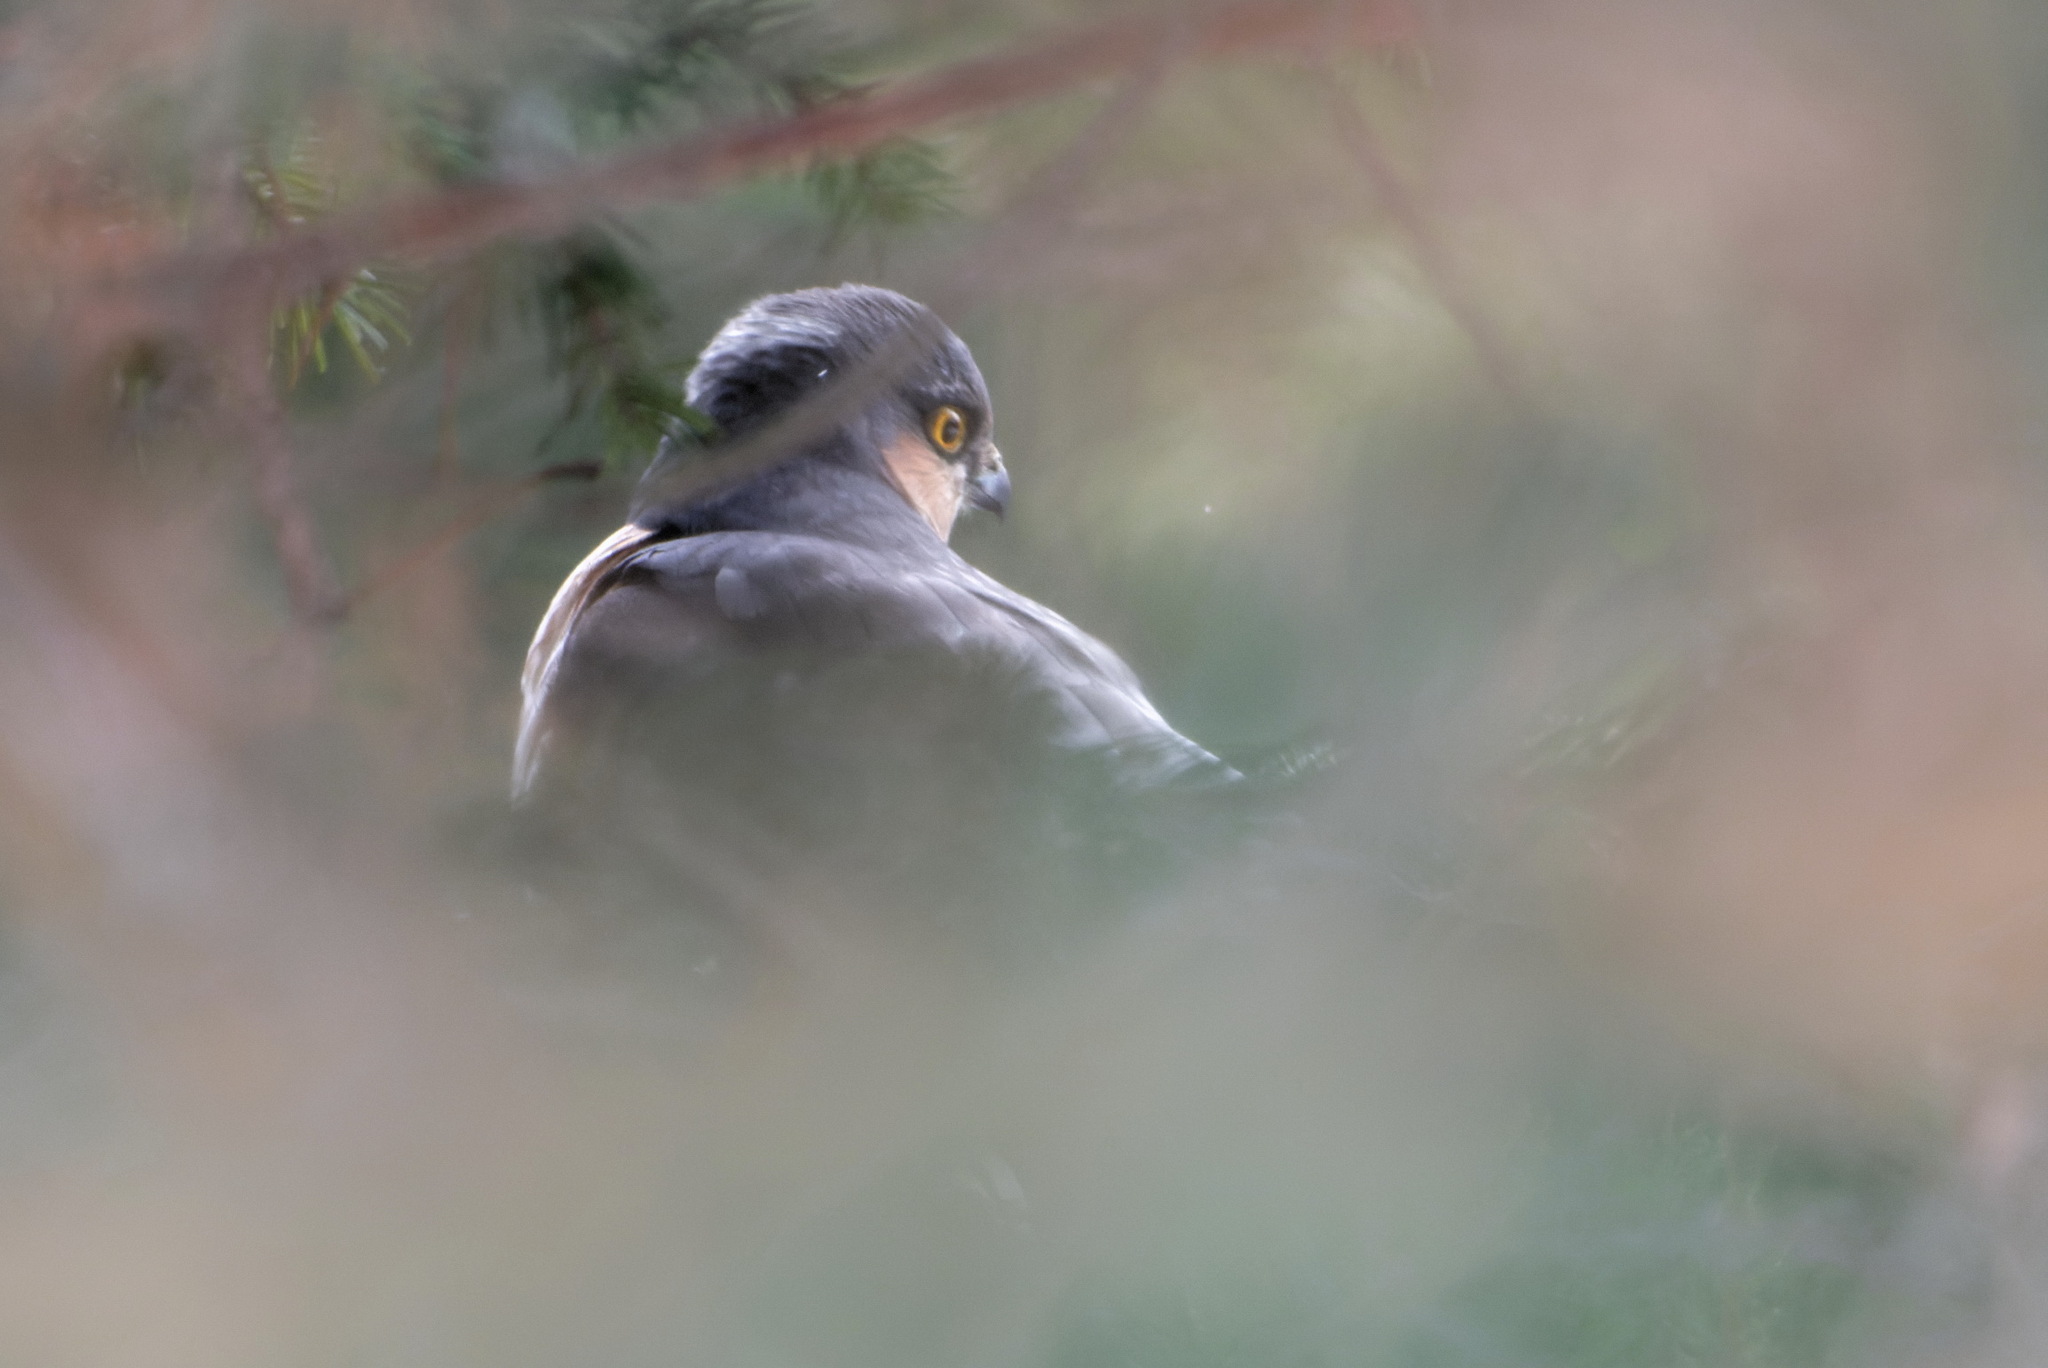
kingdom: Animalia
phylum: Chordata
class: Aves
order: Accipitriformes
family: Accipitridae
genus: Accipiter
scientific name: Accipiter nisus
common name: Eurasian sparrowhawk
